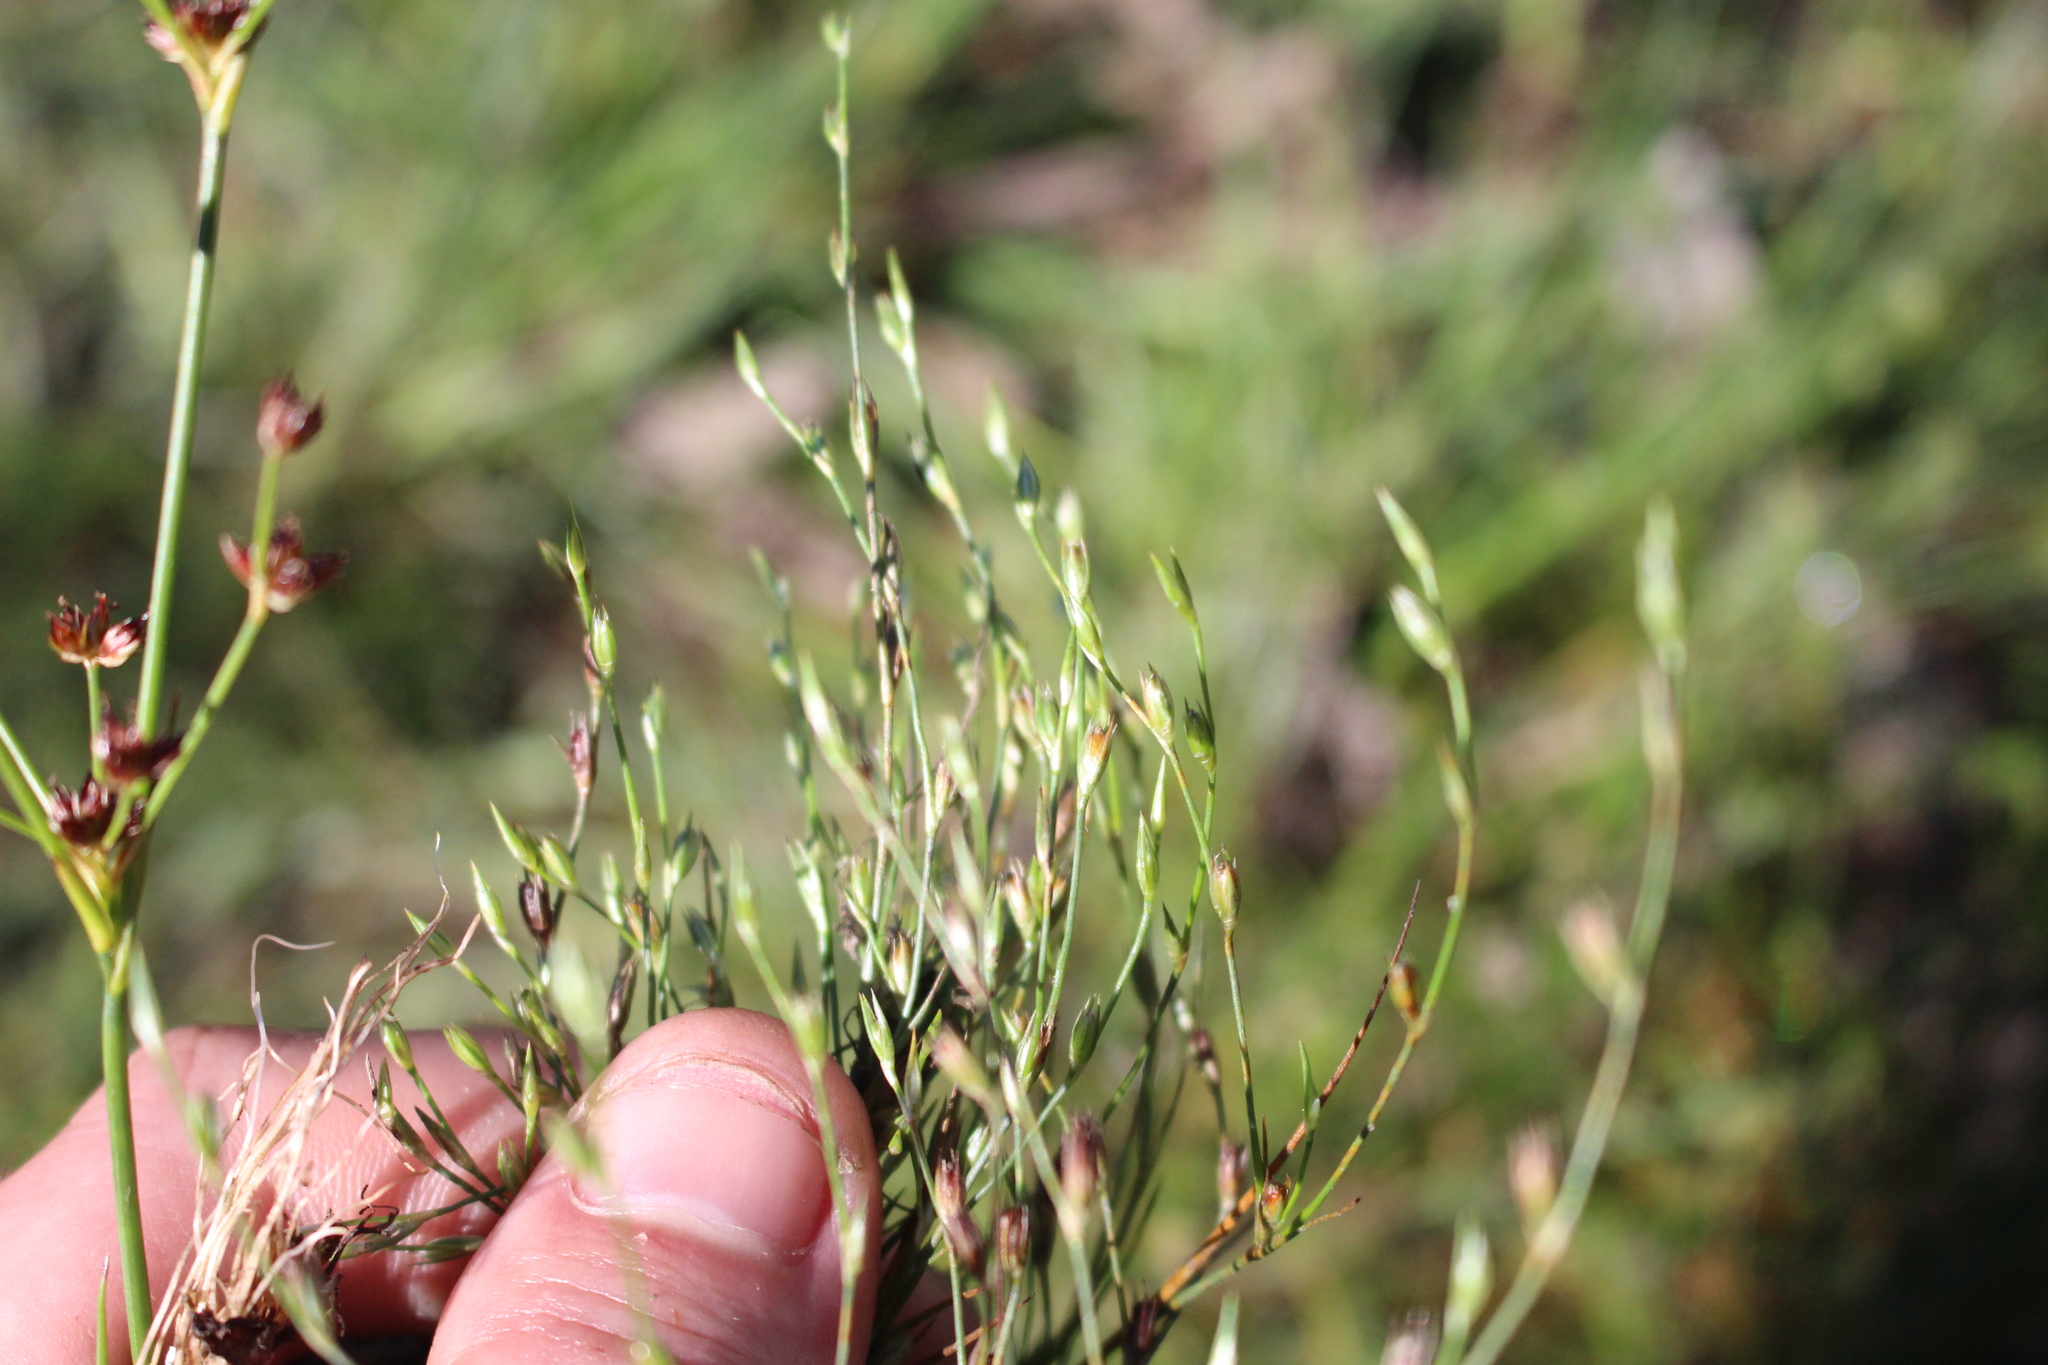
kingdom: Plantae
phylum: Tracheophyta
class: Liliopsida
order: Poales
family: Juncaceae
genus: Juncus
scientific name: Juncus bufonius
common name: Toad rush
